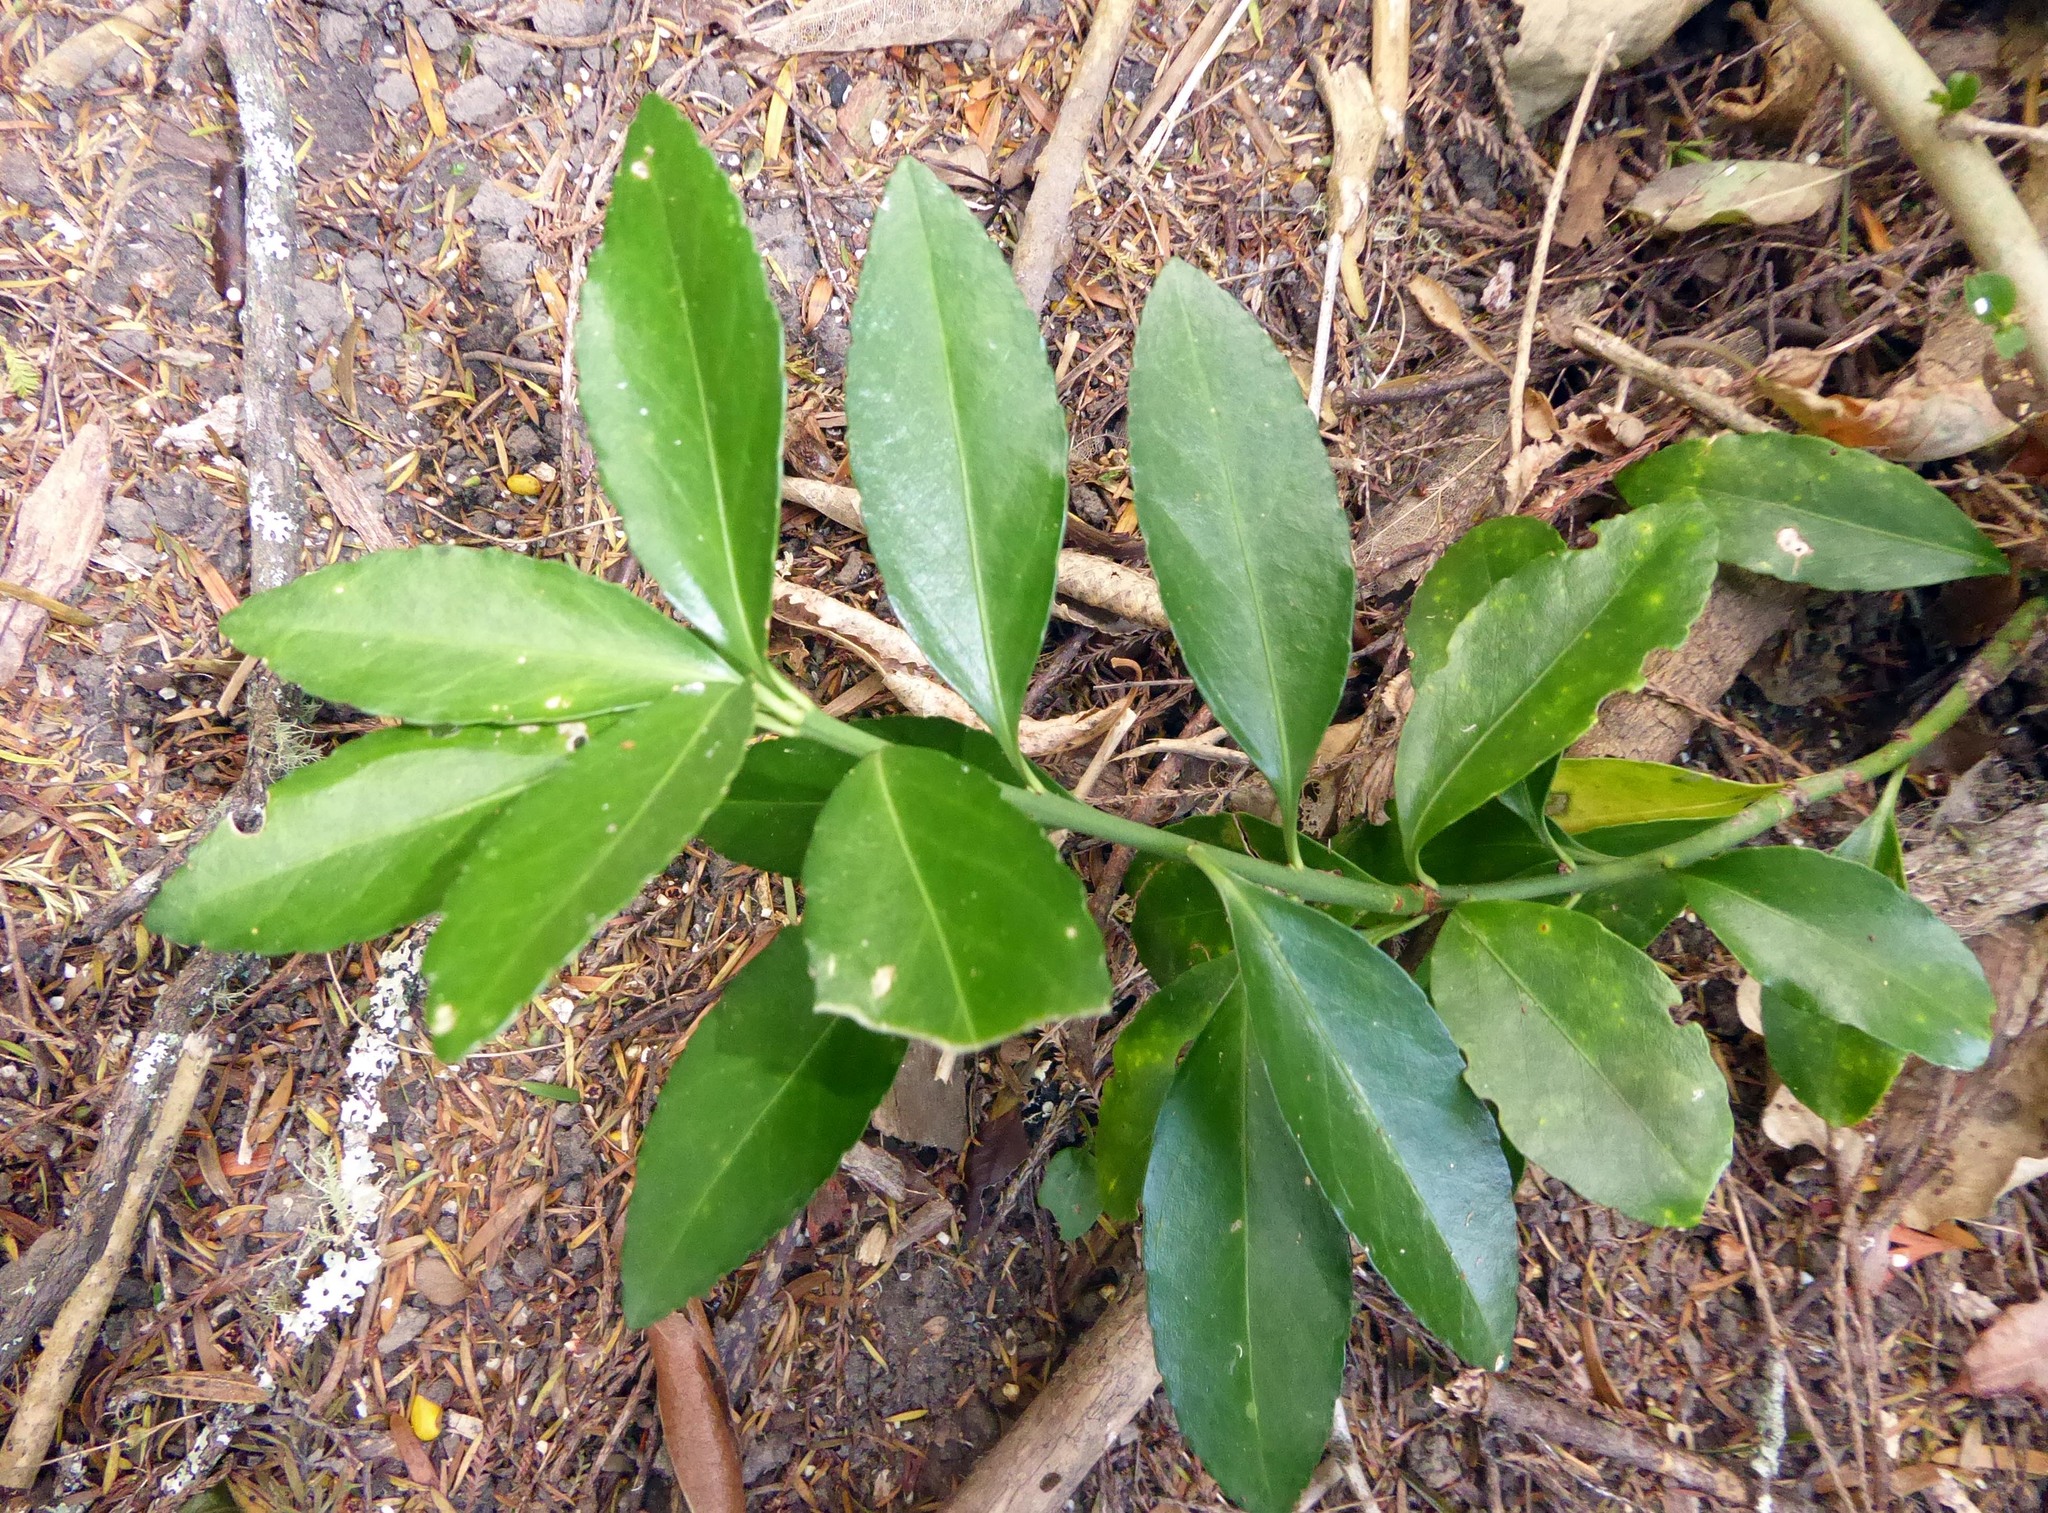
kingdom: Plantae
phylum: Tracheophyta
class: Magnoliopsida
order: Celastrales
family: Celastraceae
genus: Euonymus
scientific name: Euonymus japonicus
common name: Japanese spindletree
